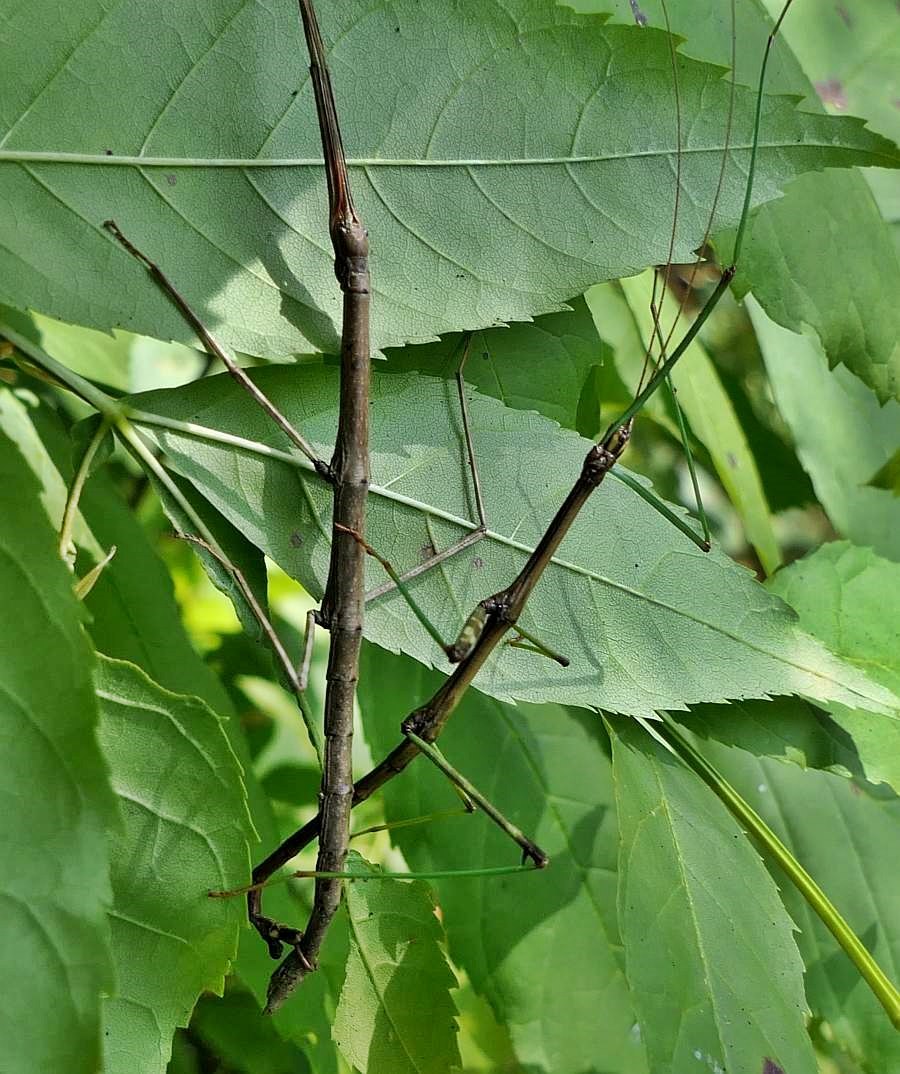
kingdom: Animalia
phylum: Arthropoda
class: Insecta
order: Phasmida
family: Diapheromeridae
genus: Diapheromera
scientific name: Diapheromera femorata
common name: Common american walkingstick
